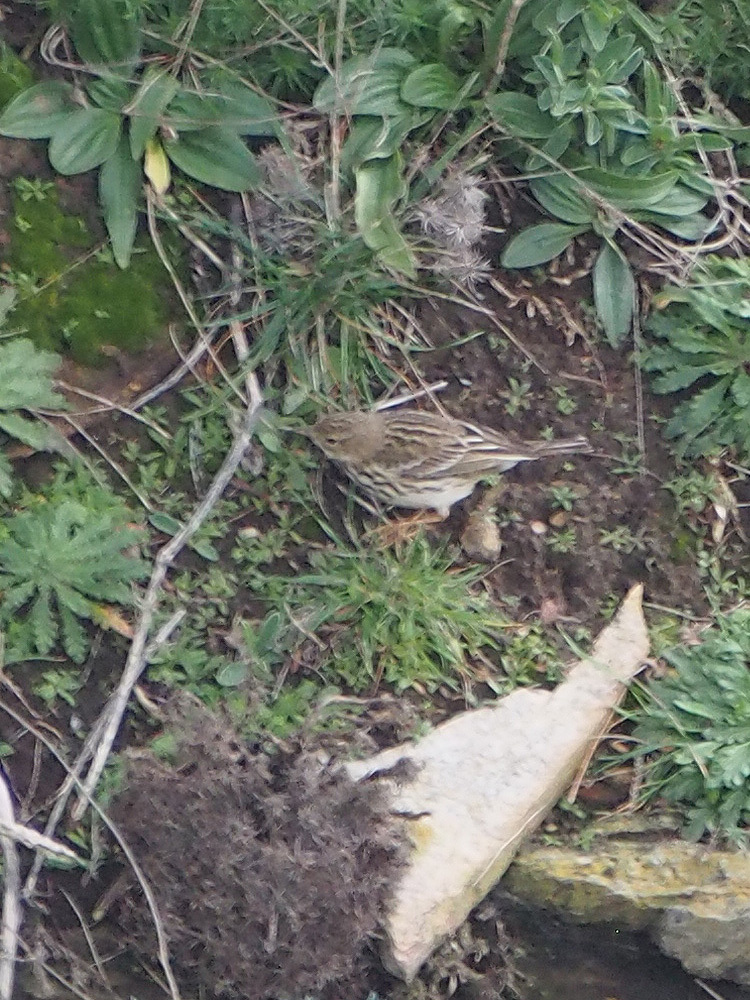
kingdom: Animalia
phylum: Chordata
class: Aves
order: Passeriformes
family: Motacillidae
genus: Anthus
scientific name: Anthus pratensis
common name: Meadow pipit
